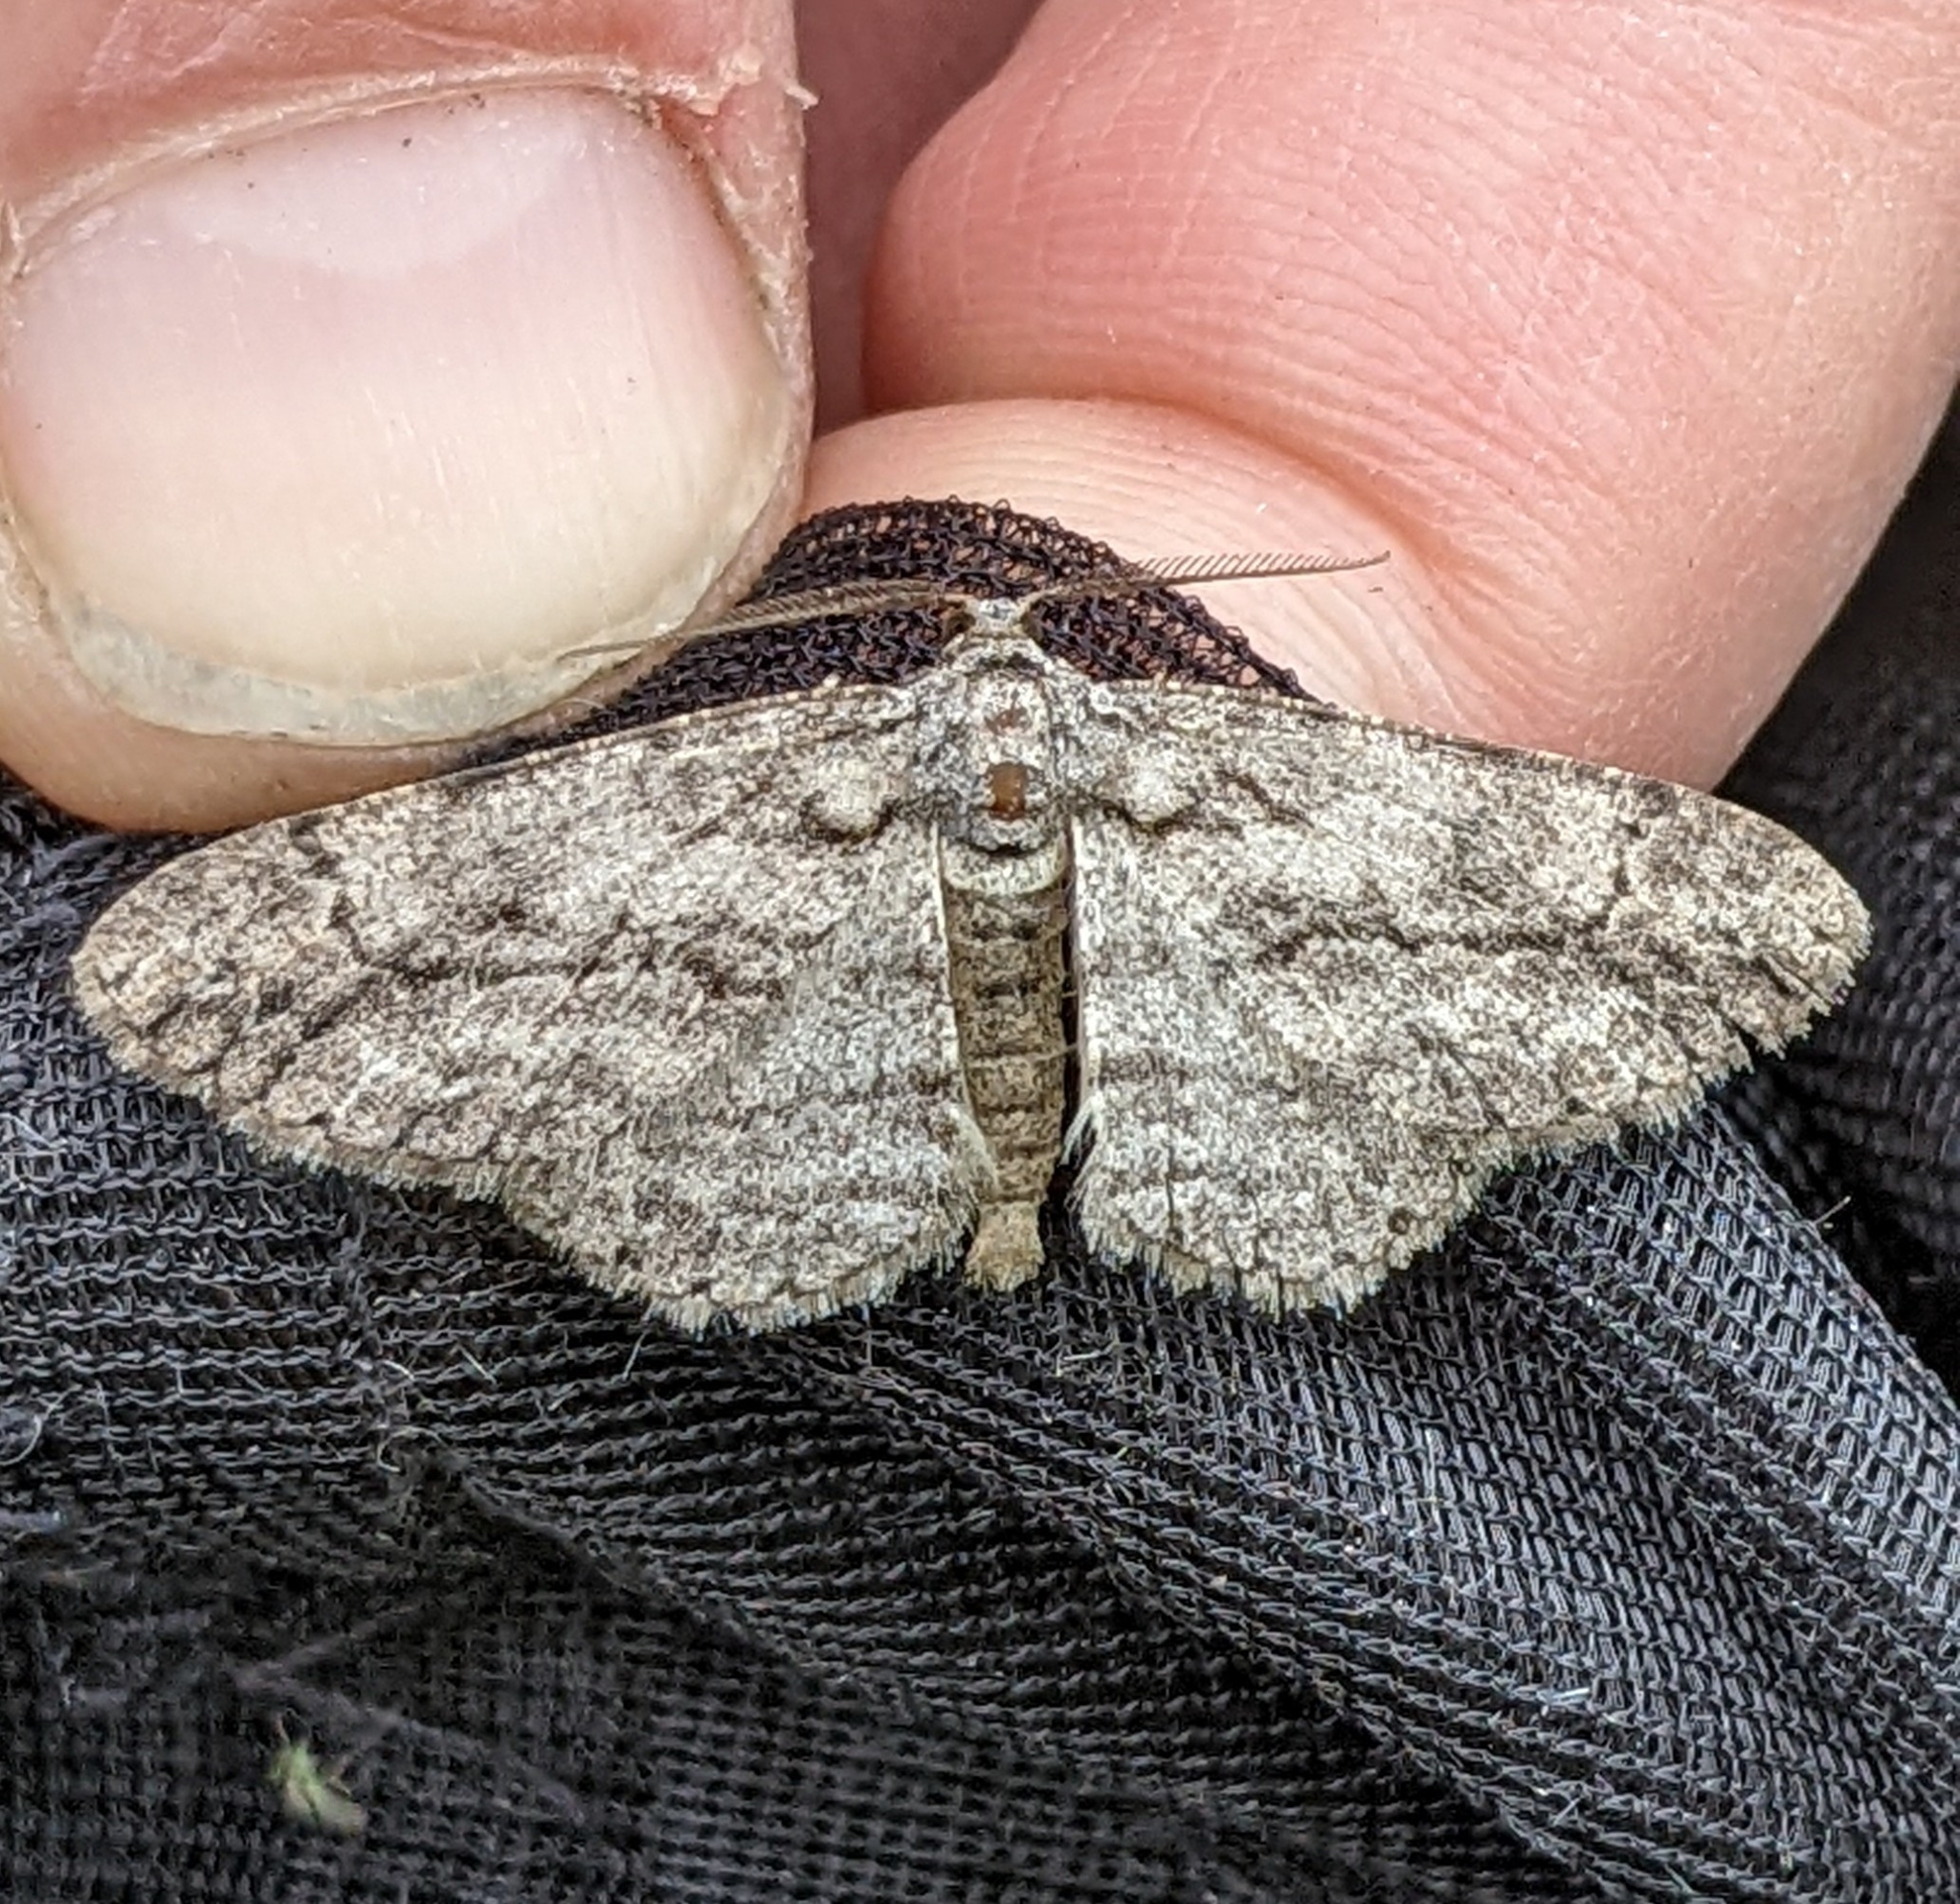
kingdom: Animalia
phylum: Arthropoda
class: Insecta
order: Lepidoptera
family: Geometridae
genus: Anavitrinella
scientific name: Anavitrinella pampinaria
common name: Common gray
